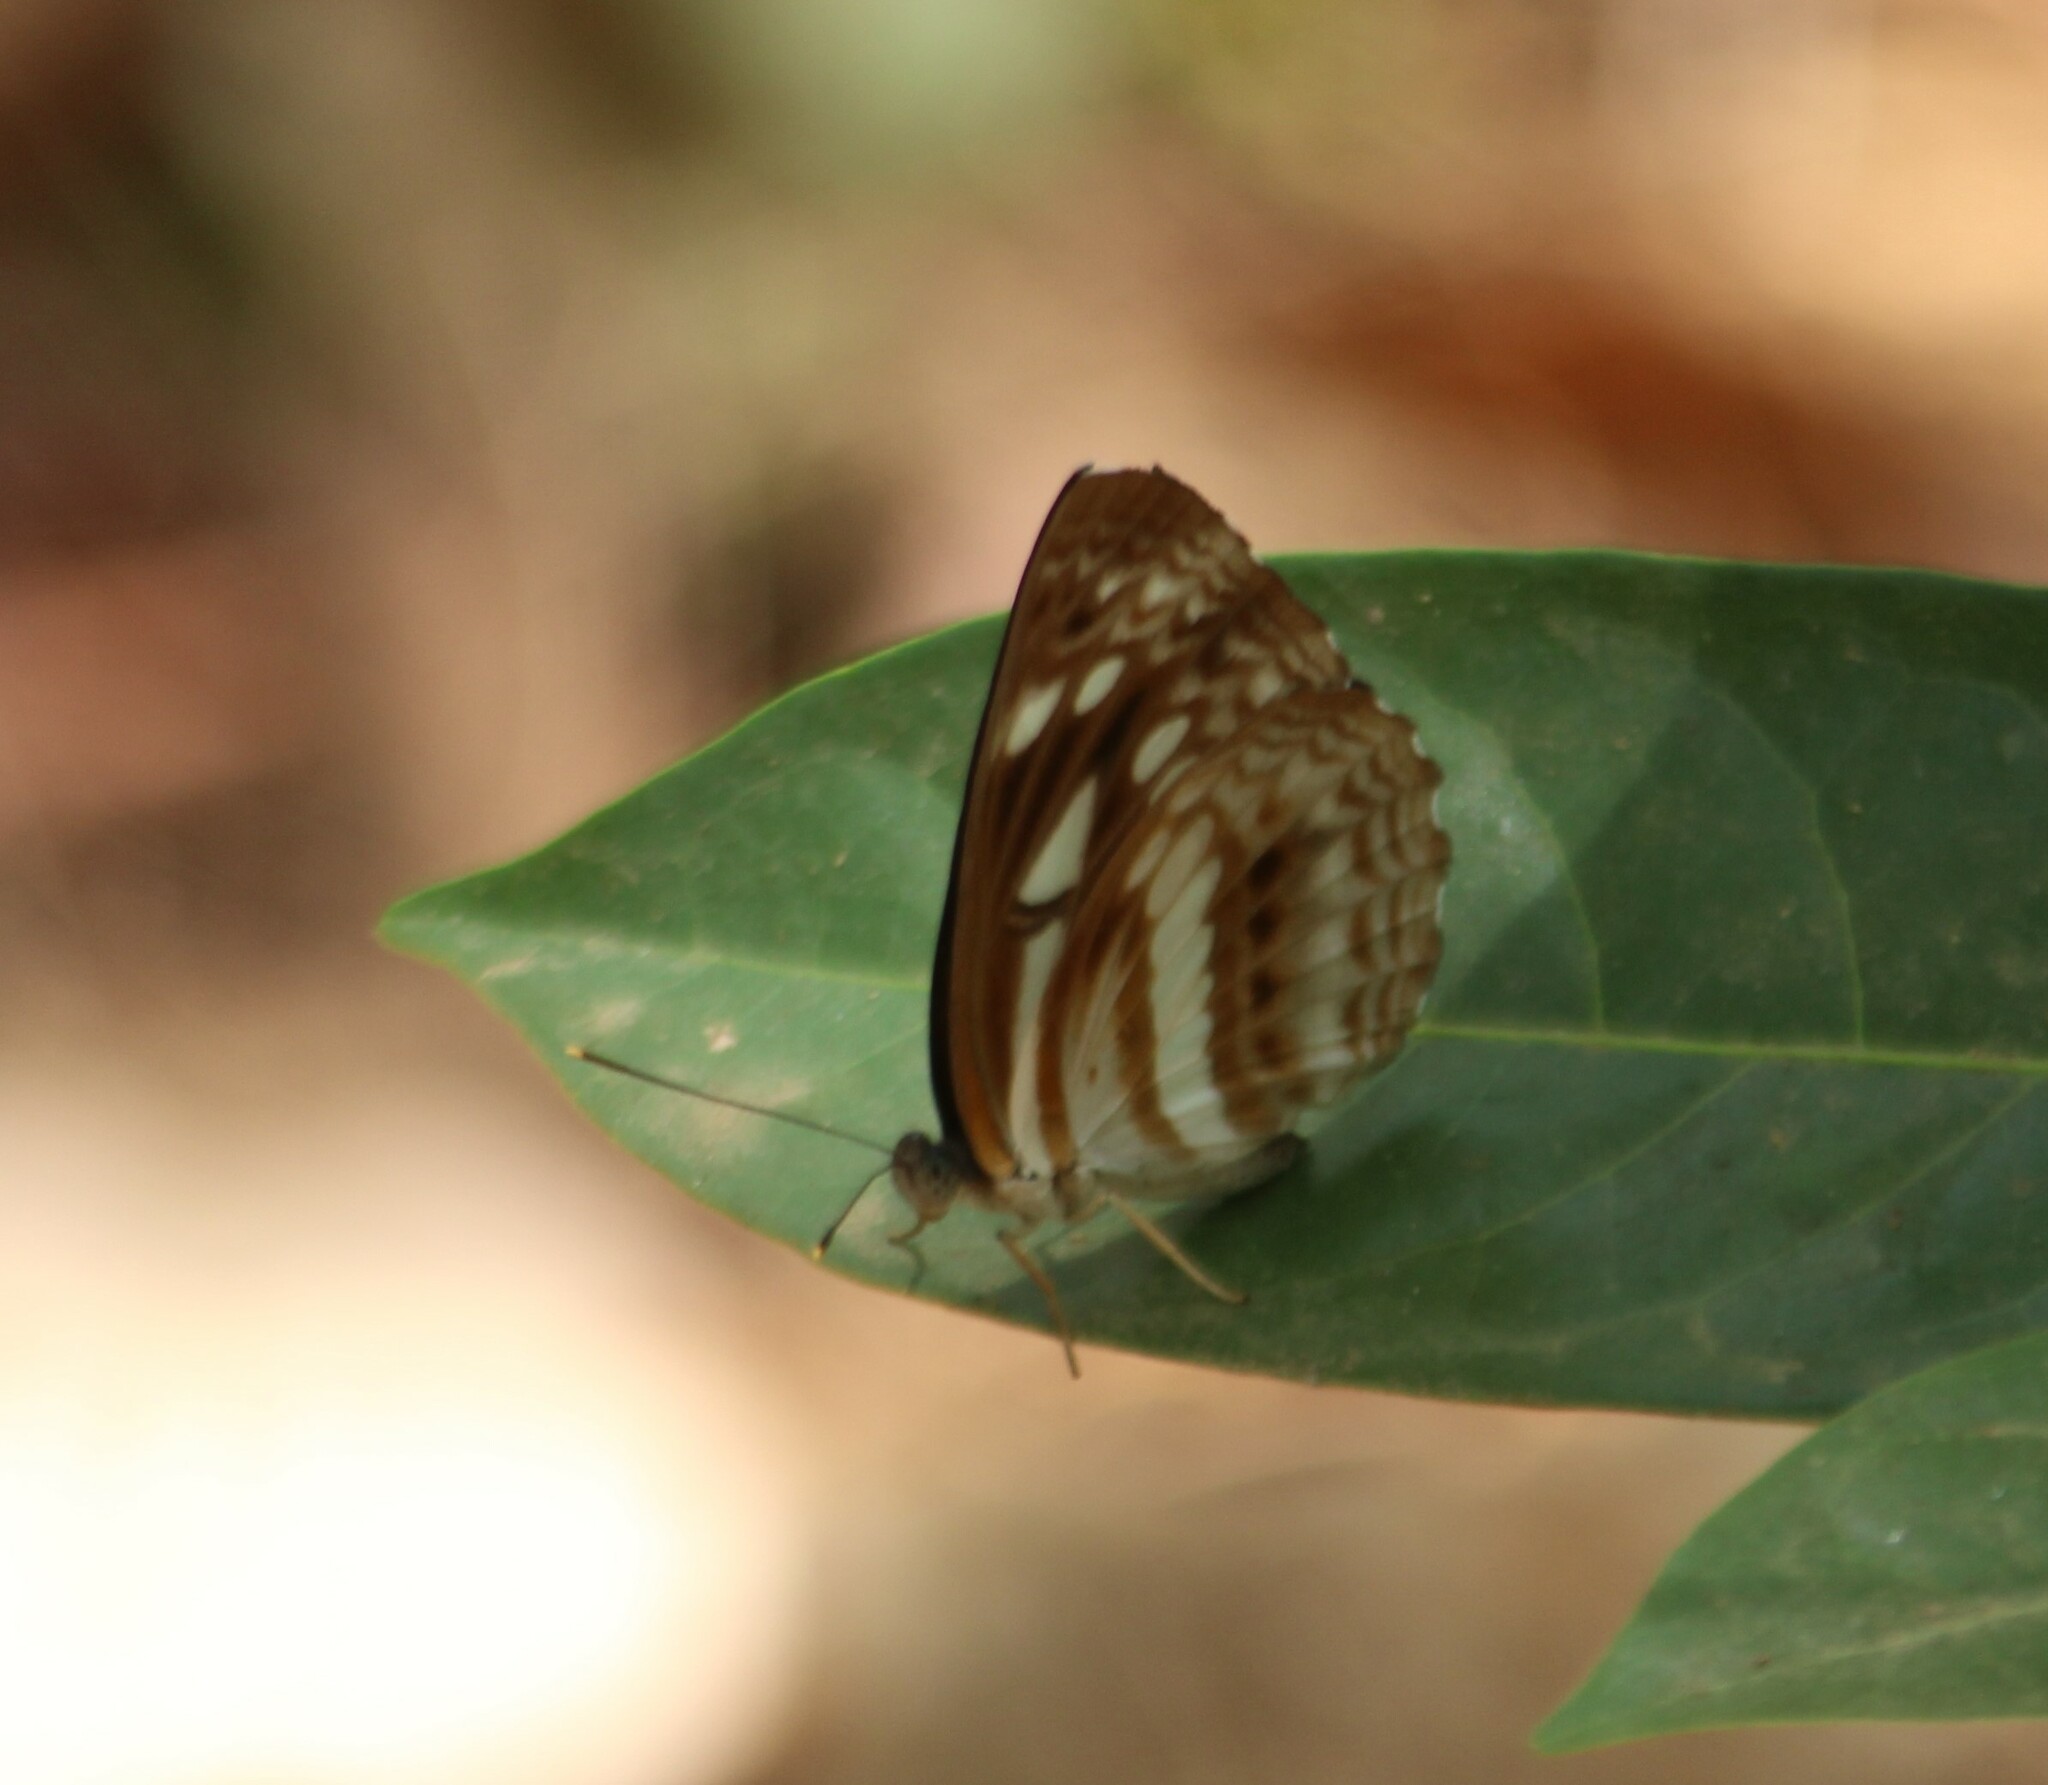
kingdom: Animalia
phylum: Arthropoda
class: Insecta
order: Lepidoptera
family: Nymphalidae
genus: Neptis
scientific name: Neptis jumbah
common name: Chestnut-streaked sailer
